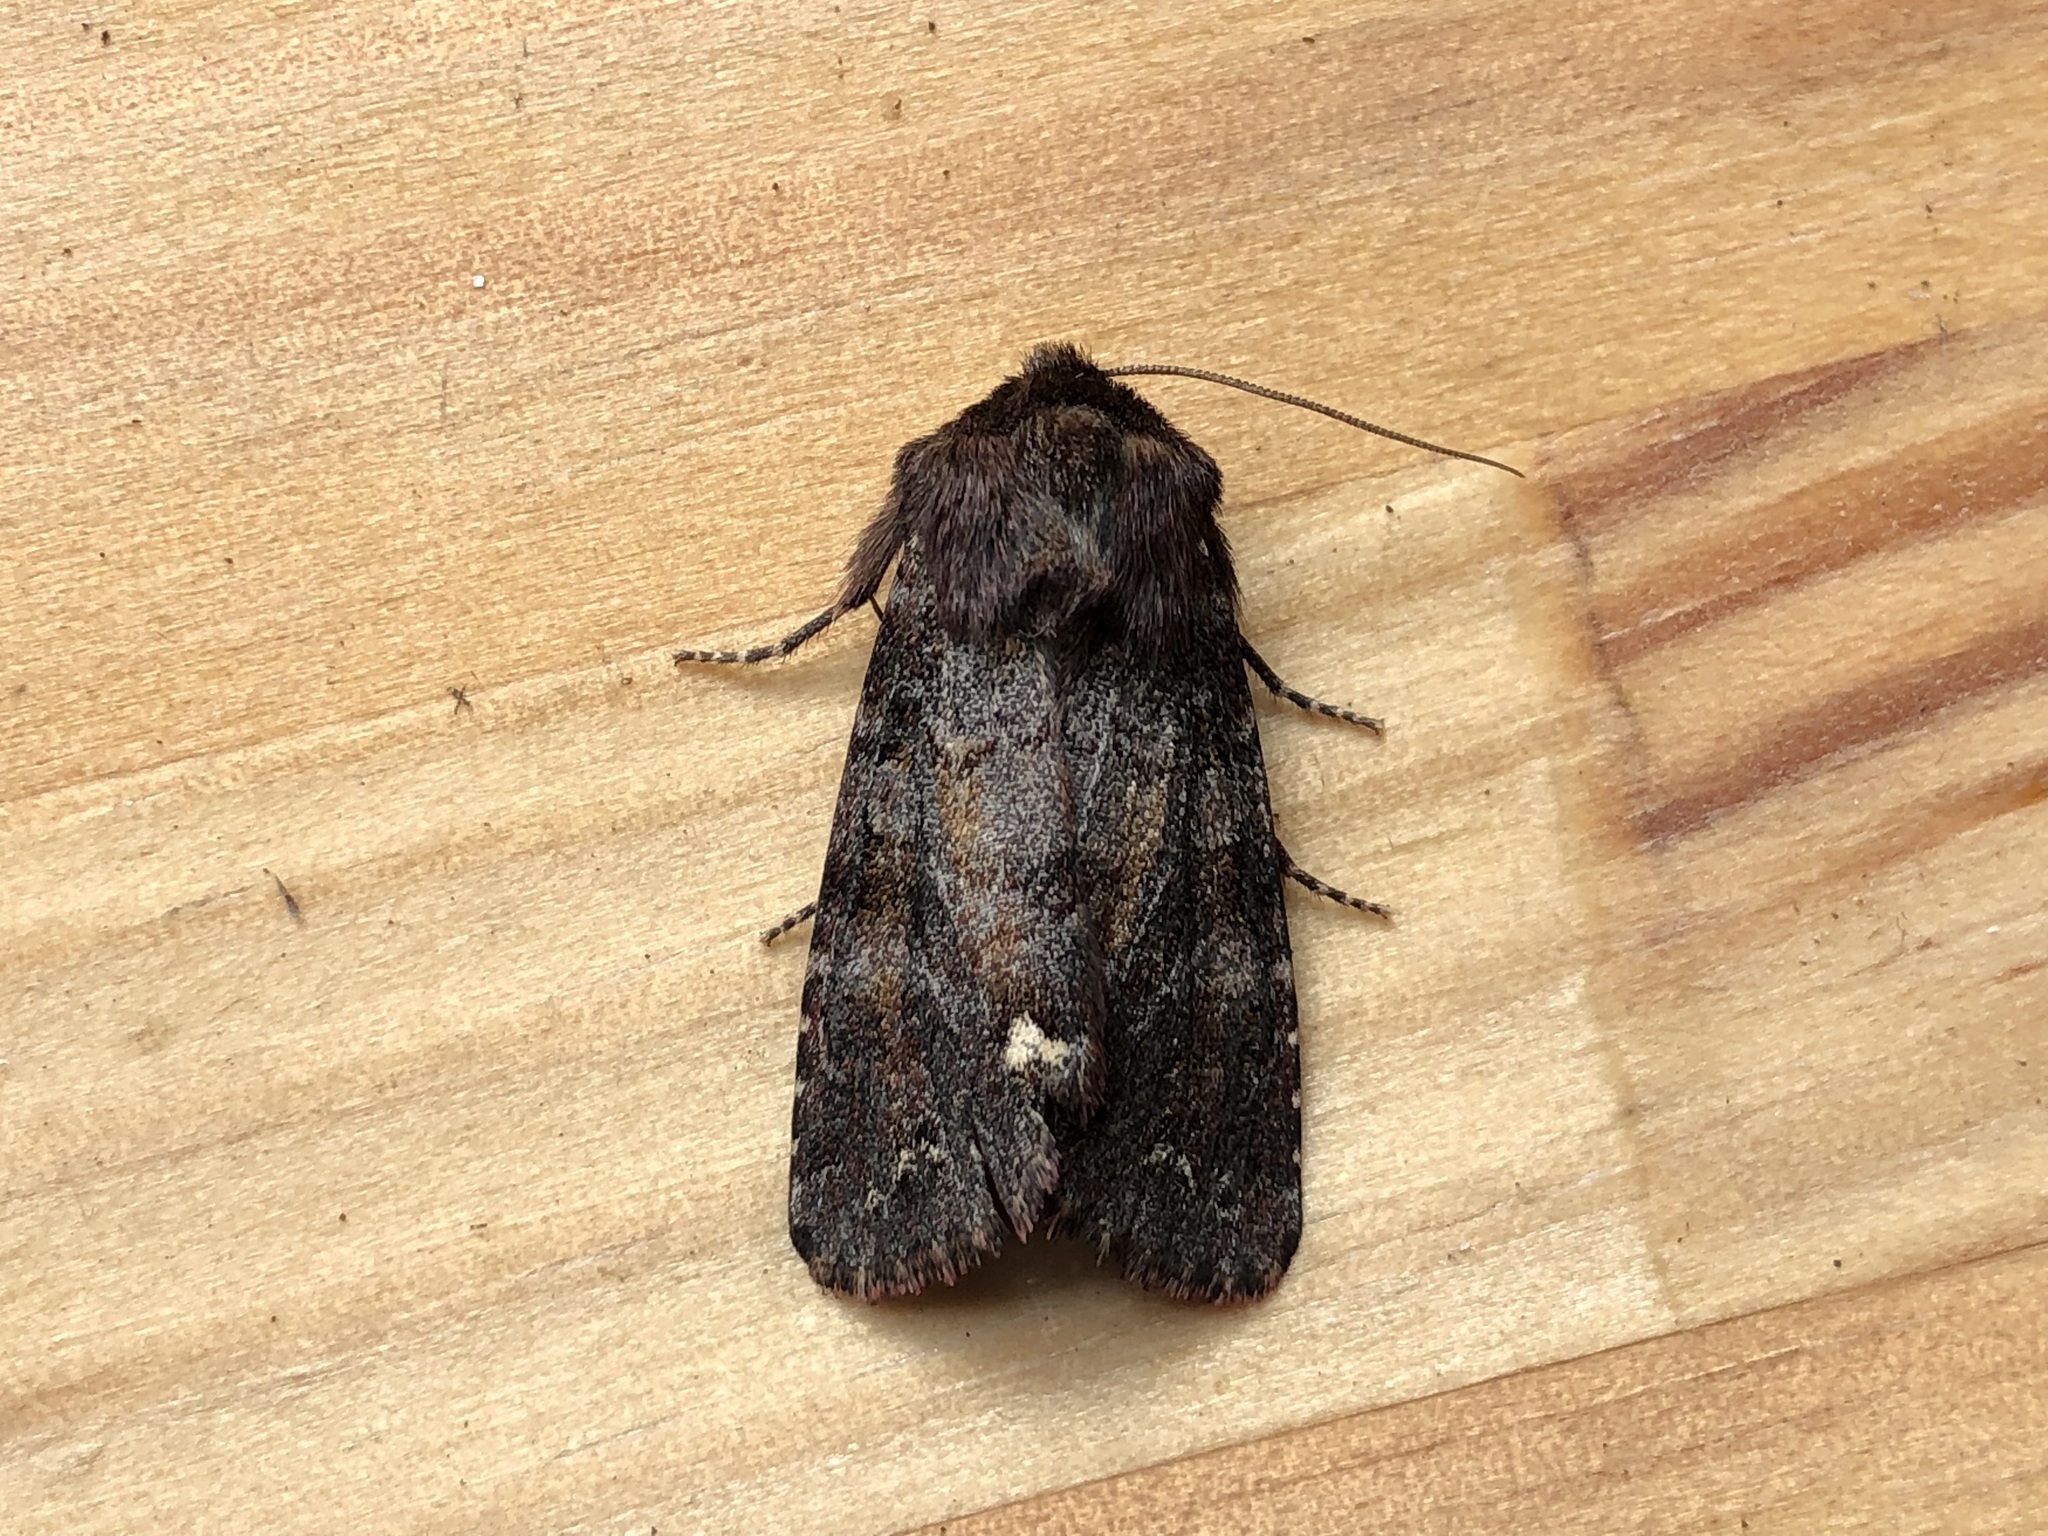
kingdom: Animalia
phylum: Arthropoda
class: Insecta
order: Lepidoptera
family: Noctuidae
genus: Ceramica
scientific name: Ceramica pisi
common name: Broom moth
